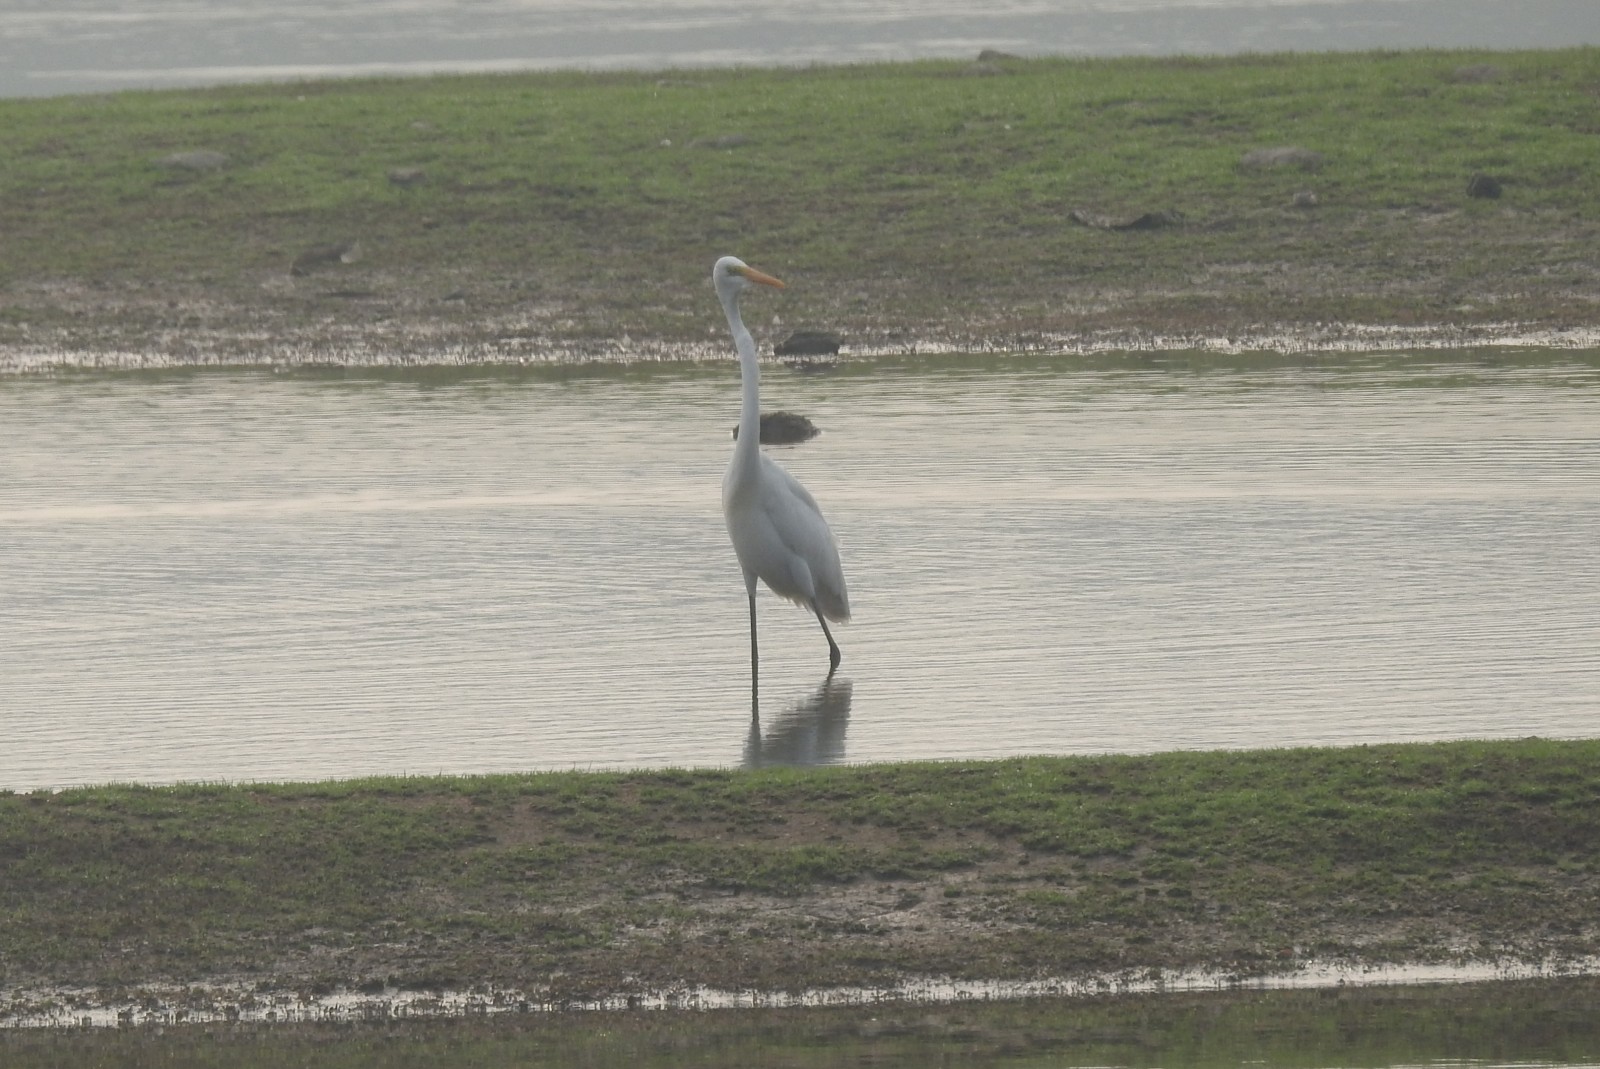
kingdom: Animalia
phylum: Chordata
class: Aves
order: Pelecaniformes
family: Ardeidae
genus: Ardea
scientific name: Ardea alba
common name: Great egret
